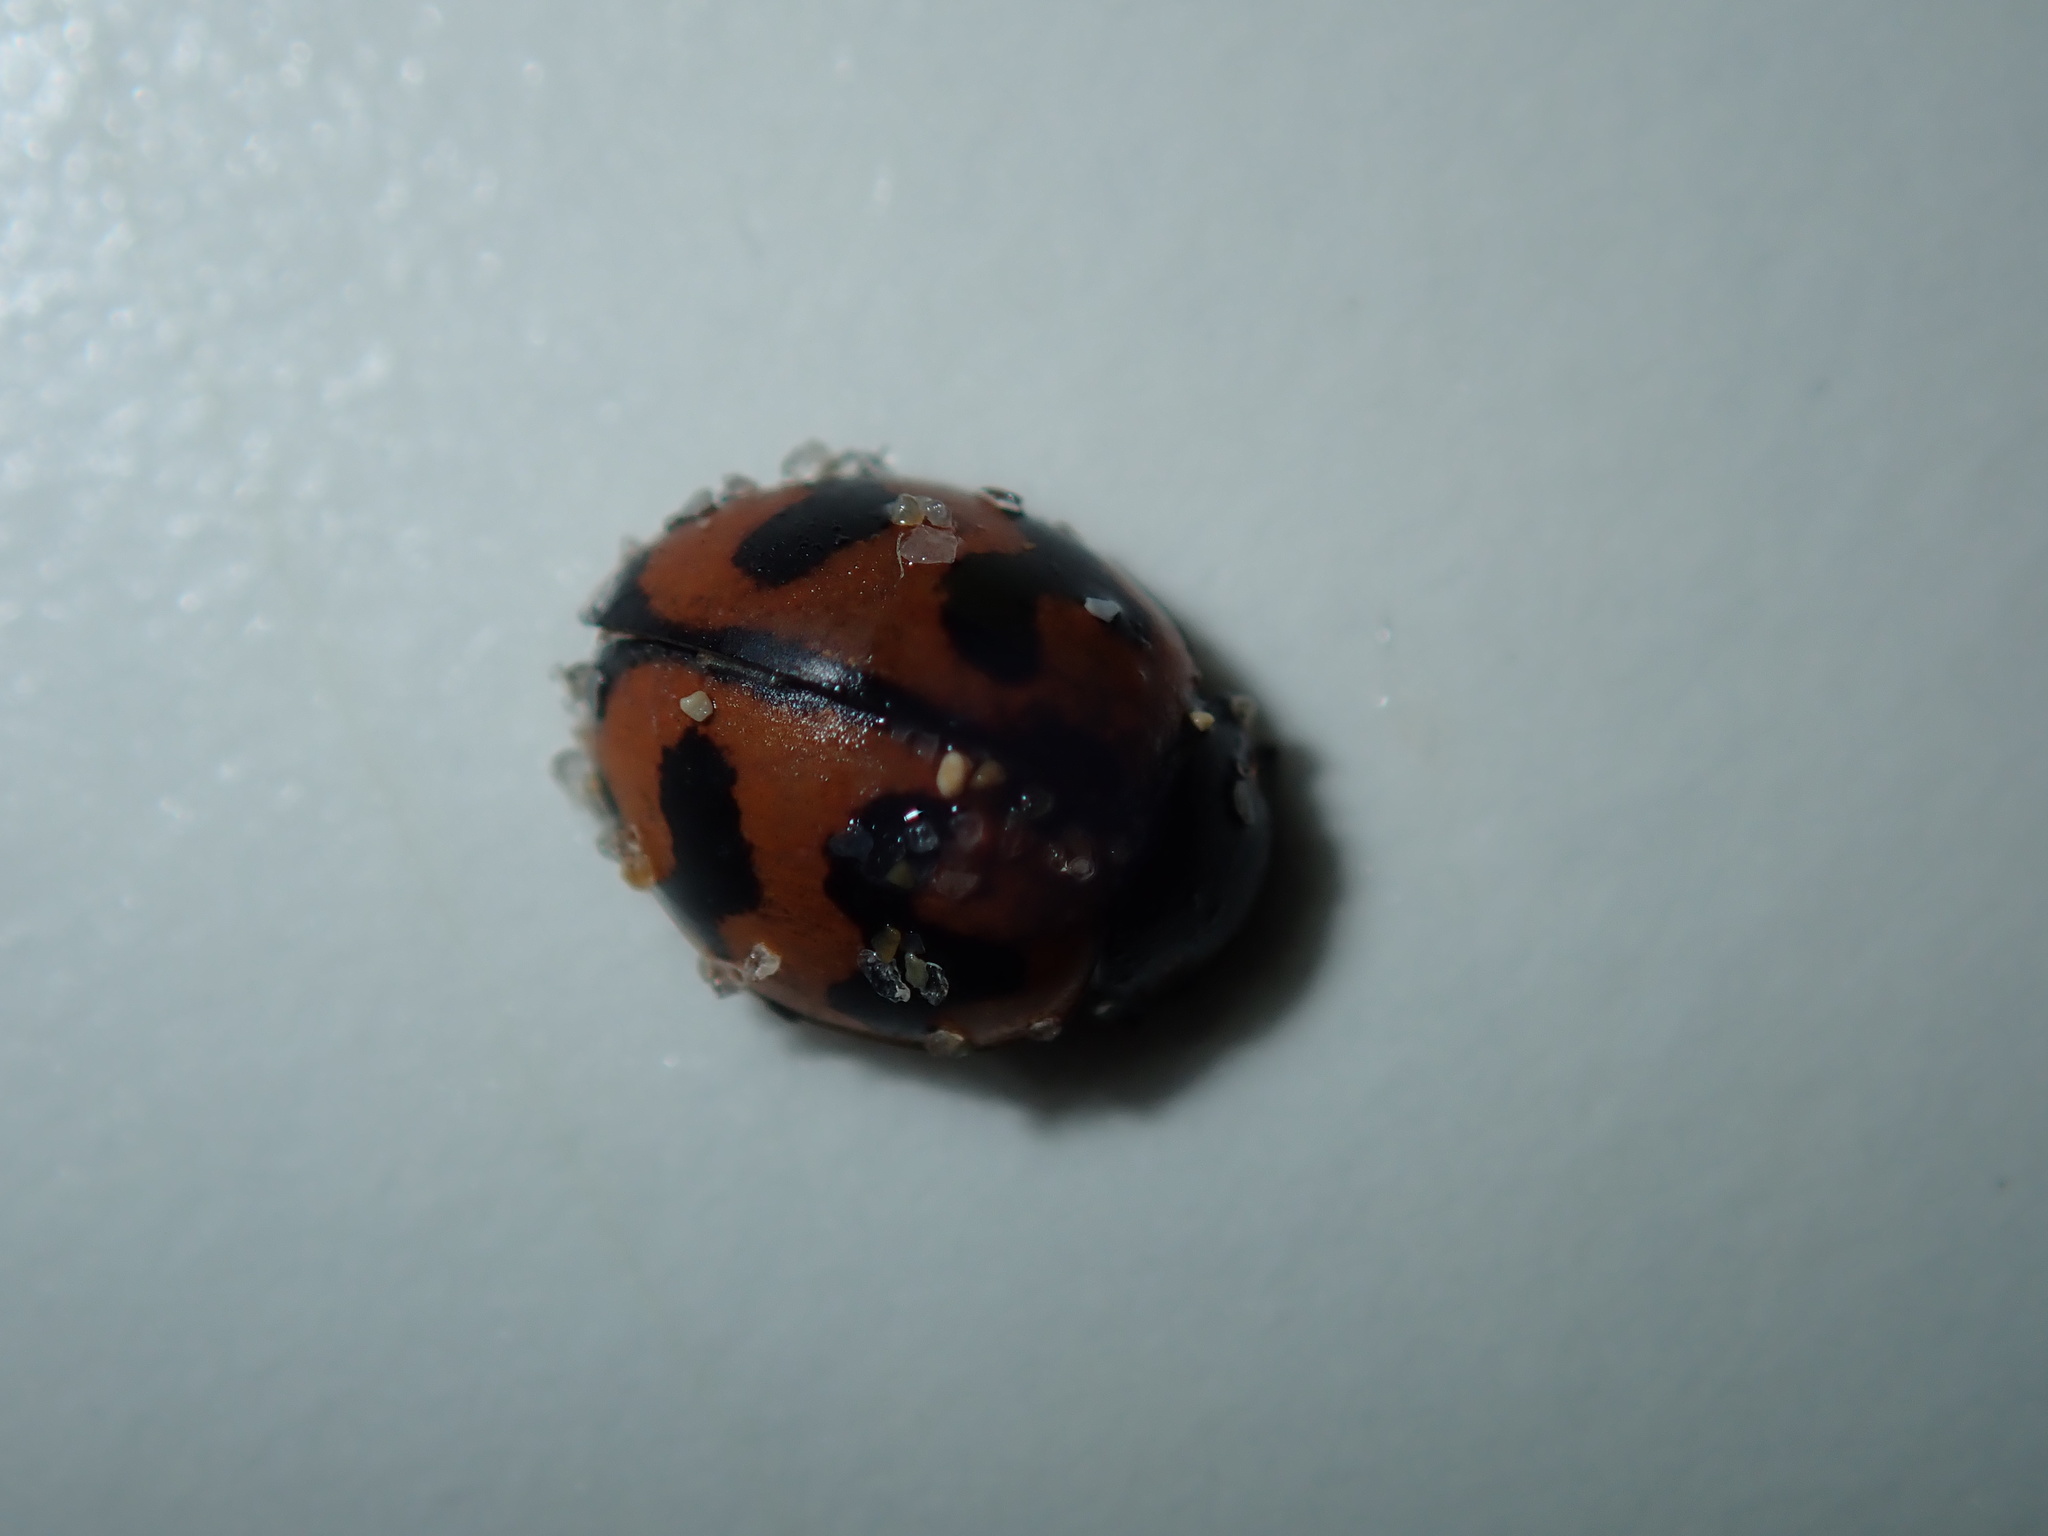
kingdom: Animalia
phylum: Arthropoda
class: Insecta
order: Coleoptera
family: Coccinellidae
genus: Coccinella
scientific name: Coccinella transversalis
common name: Transverse lady beetle
